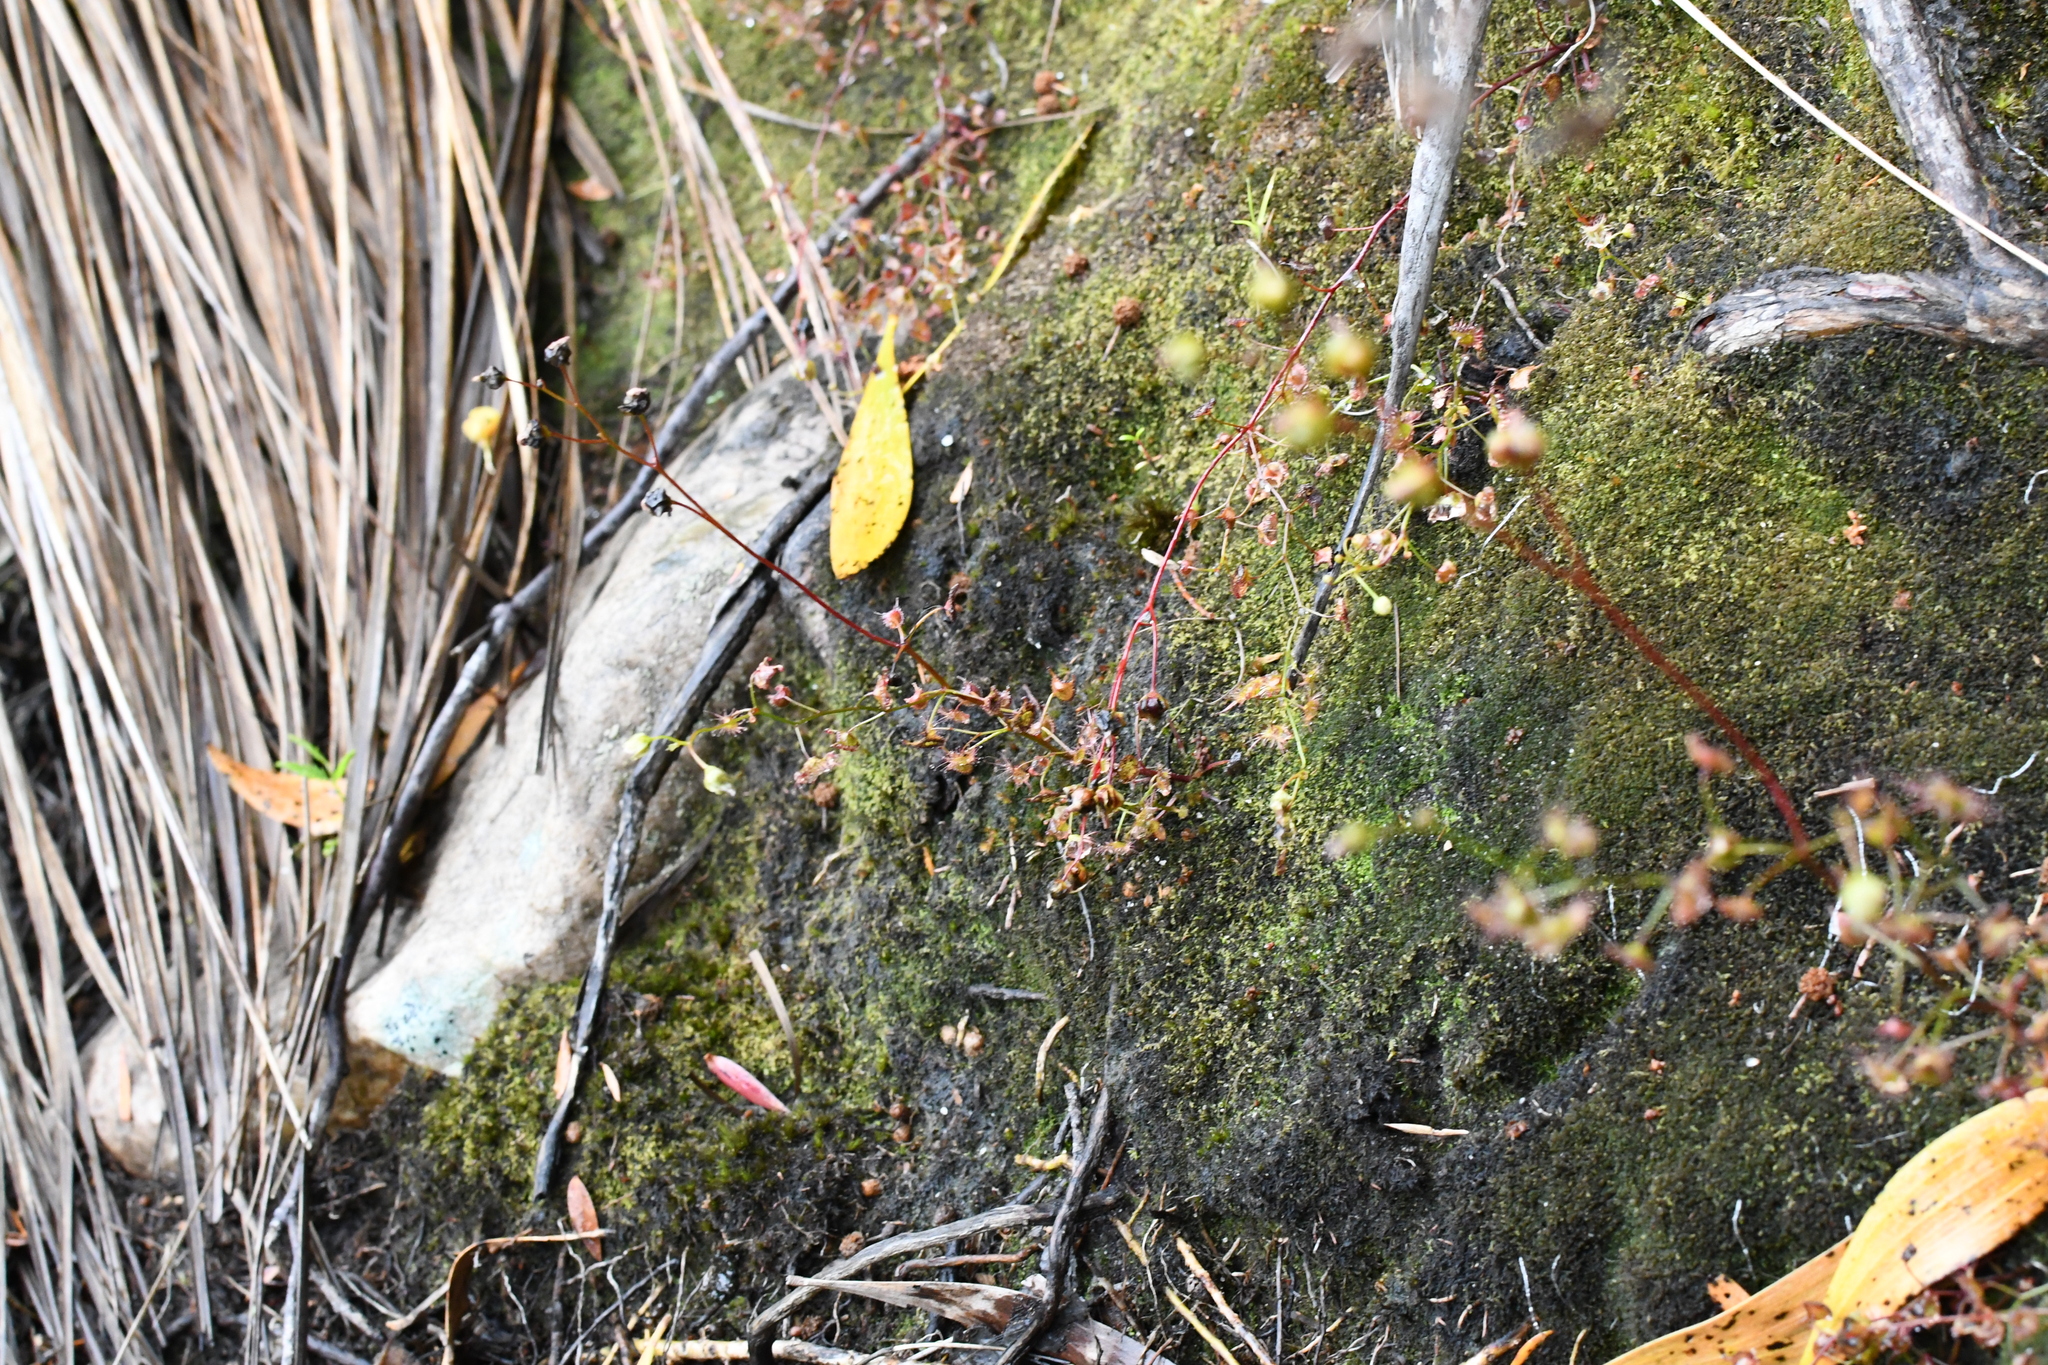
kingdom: Plantae
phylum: Tracheophyta
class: Magnoliopsida
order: Caryophyllales
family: Droseraceae
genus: Drosera
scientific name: Drosera peltata
